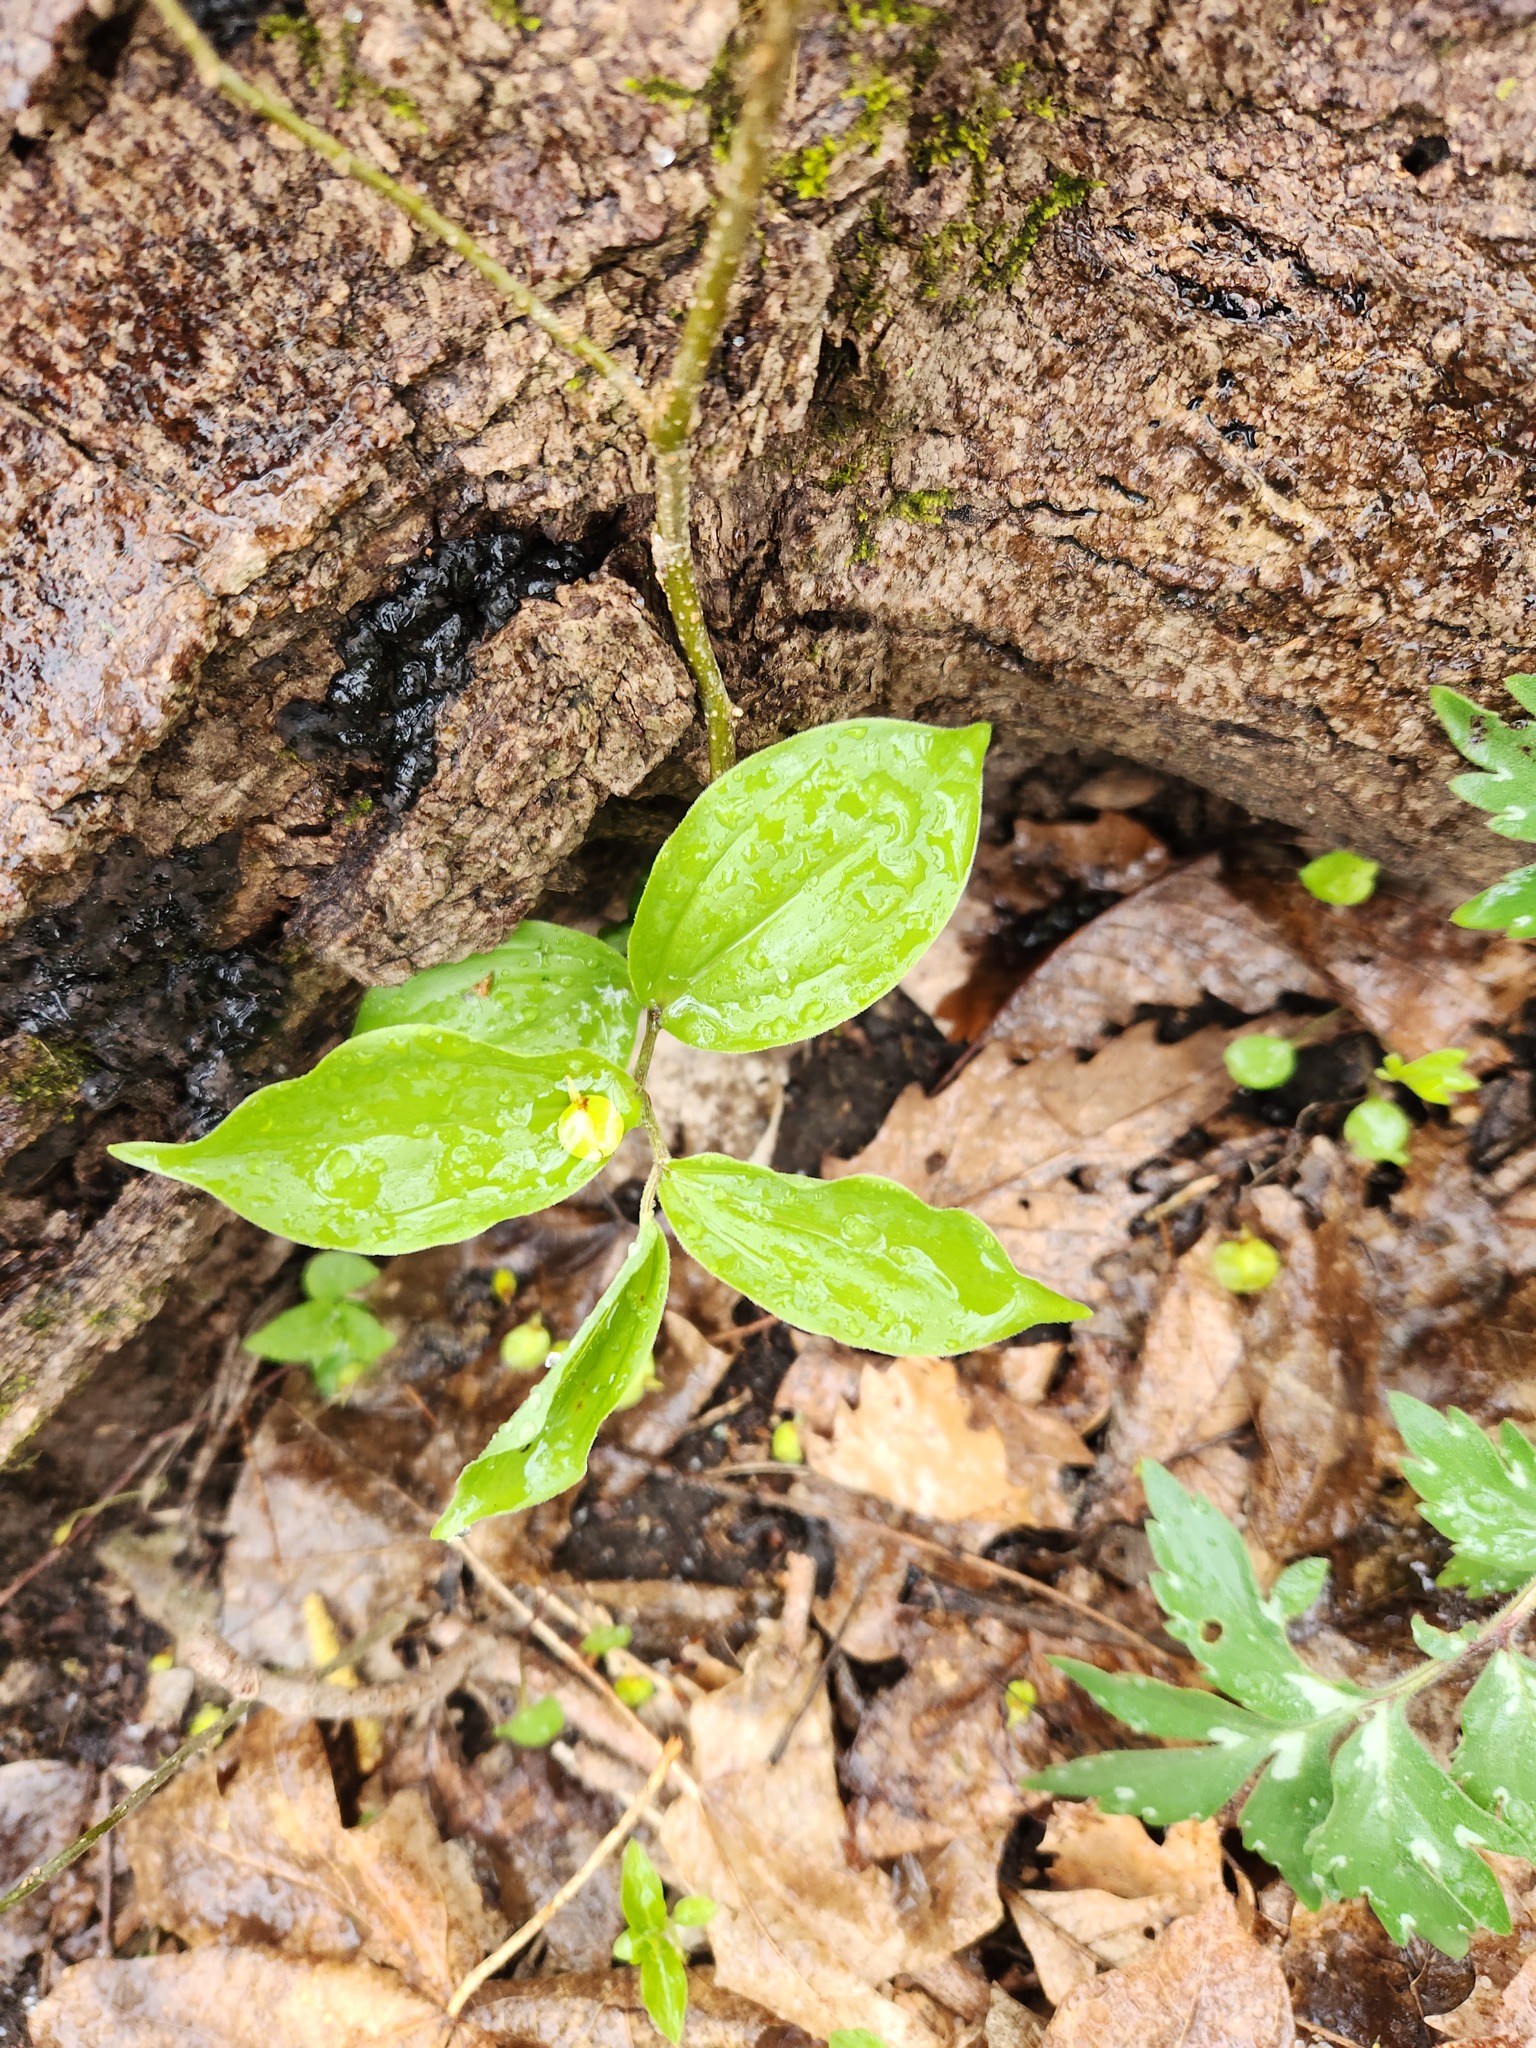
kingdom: Plantae
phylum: Tracheophyta
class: Liliopsida
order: Asparagales
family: Asparagaceae
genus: Maianthemum
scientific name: Maianthemum racemosum
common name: False spikenard
